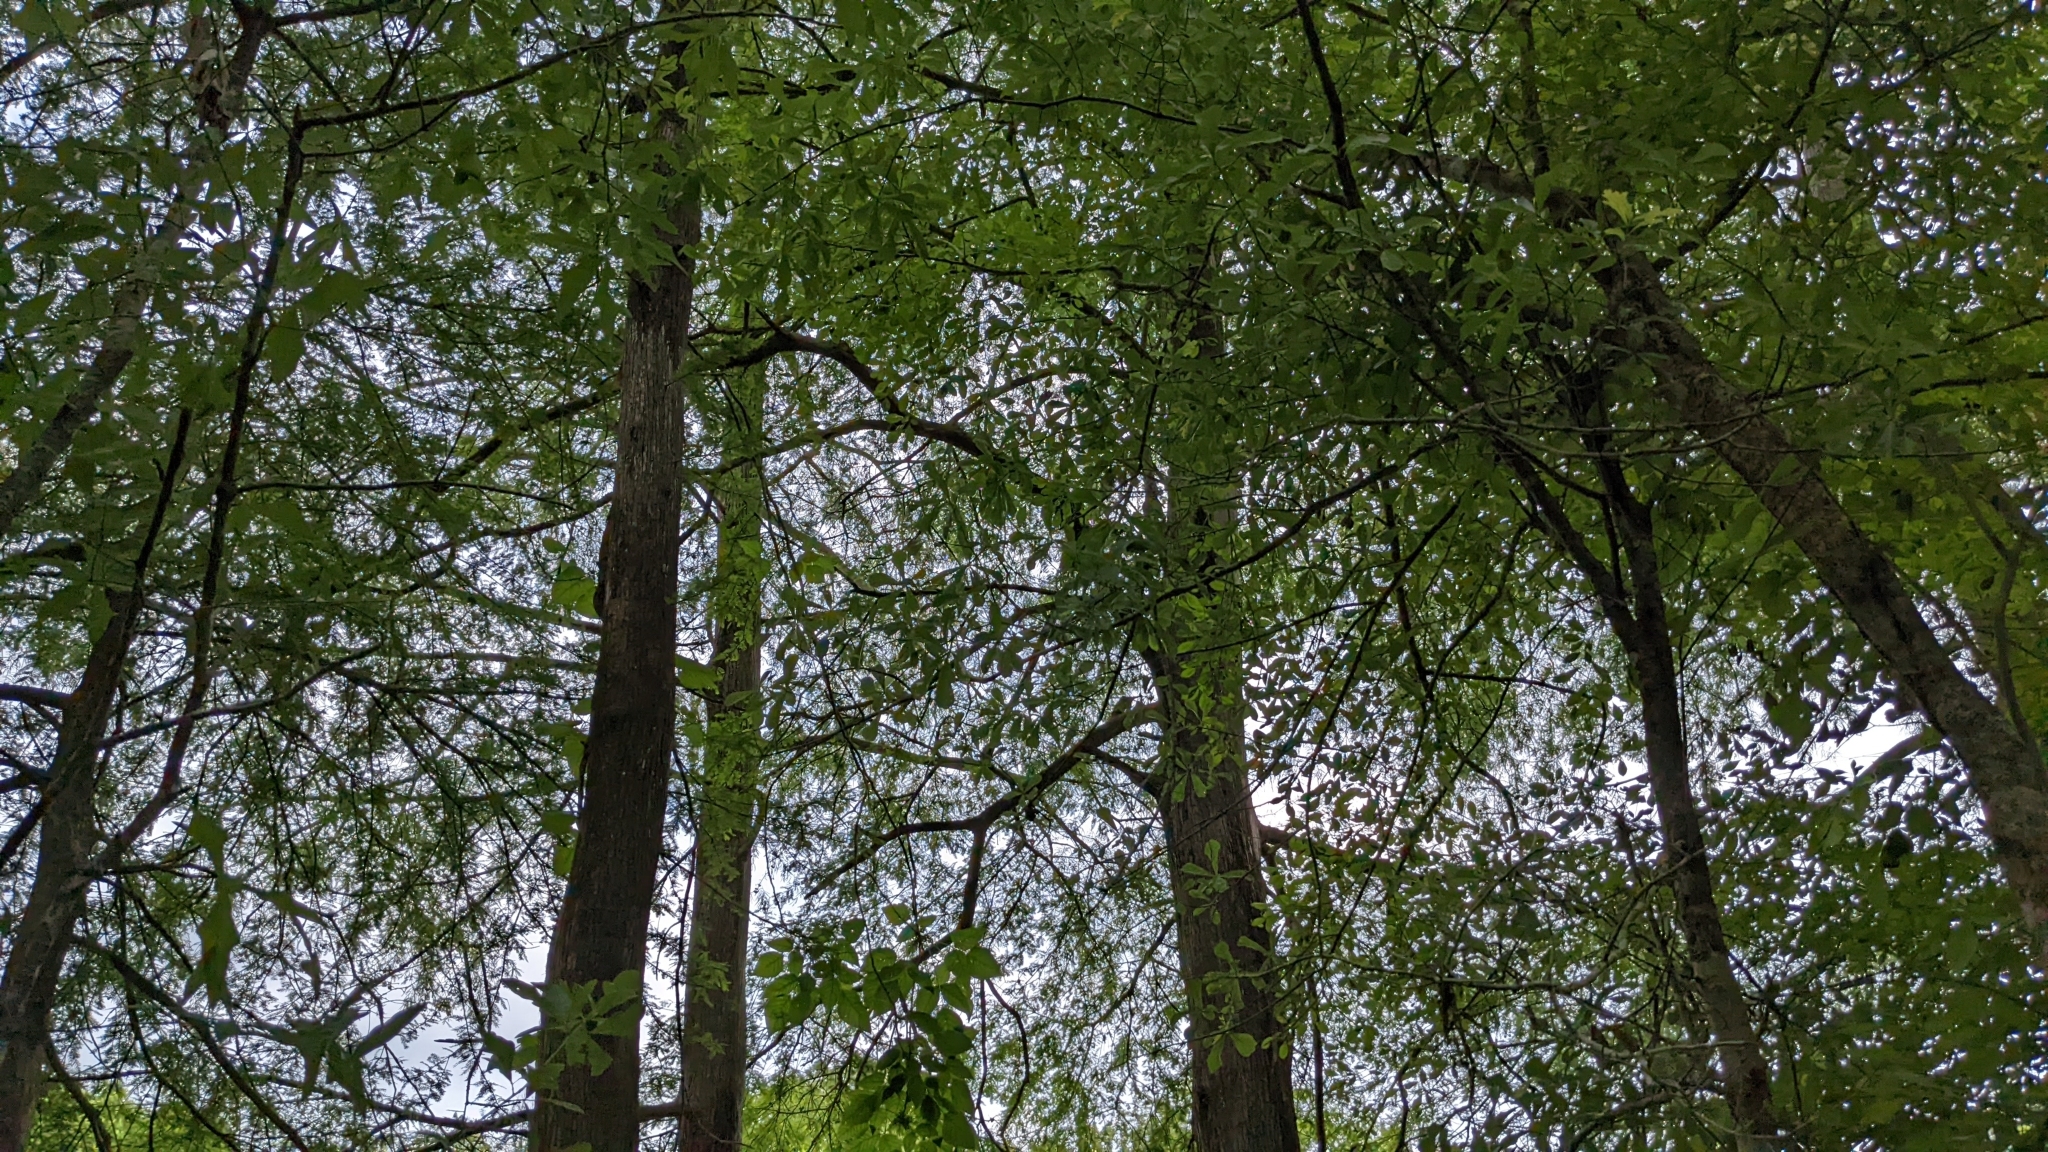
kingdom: Plantae
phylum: Tracheophyta
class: Pinopsida
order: Pinales
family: Cupressaceae
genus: Taxodium
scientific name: Taxodium distichum
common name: Bald cypress
